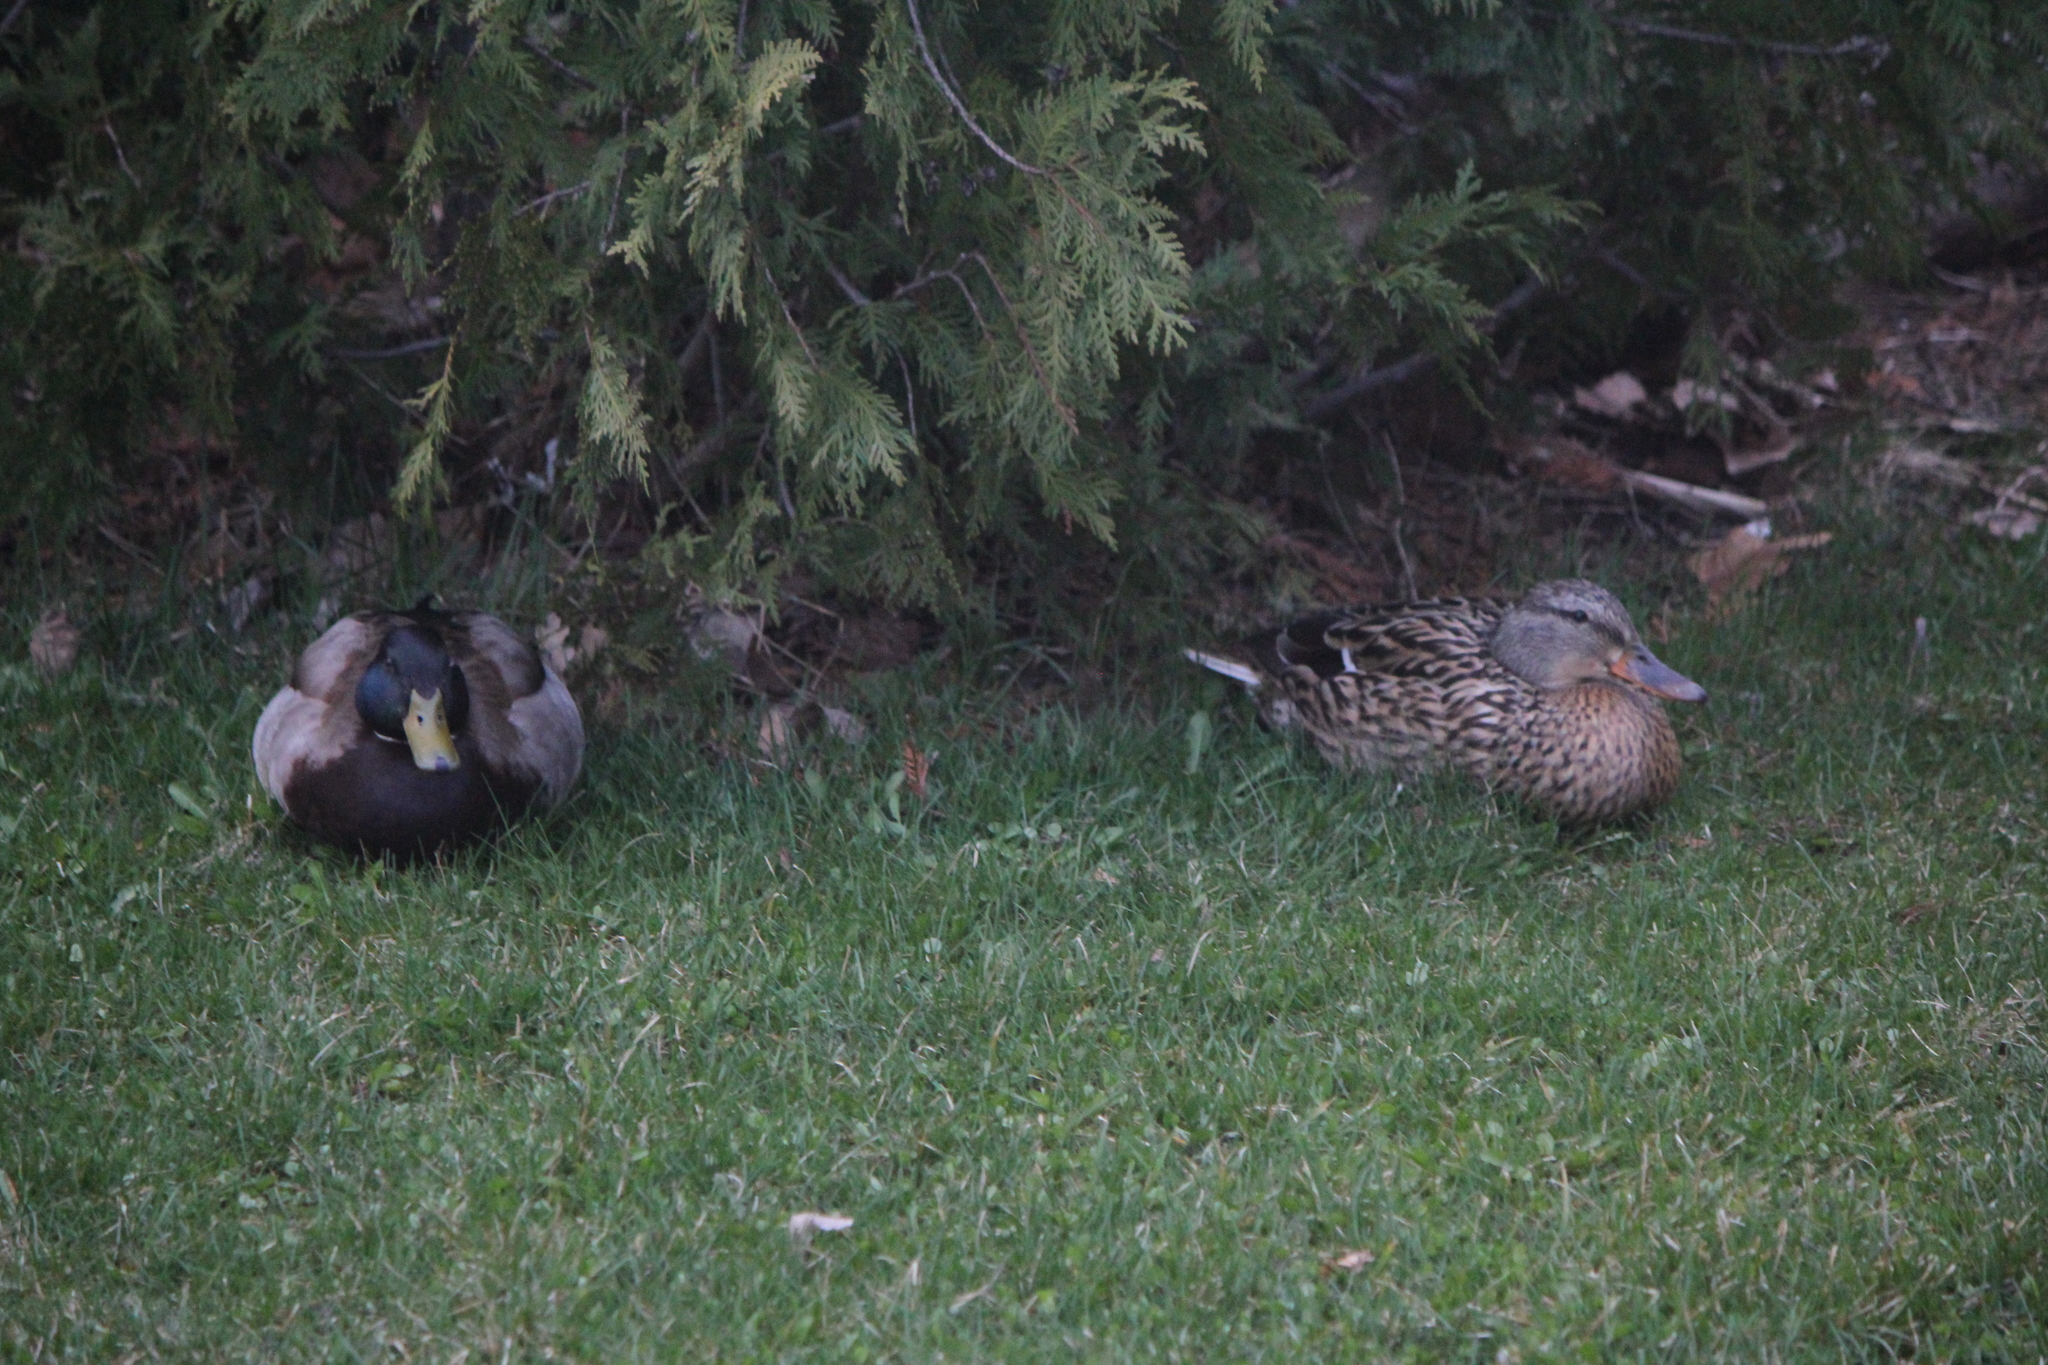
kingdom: Animalia
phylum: Chordata
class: Aves
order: Anseriformes
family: Anatidae
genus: Anas
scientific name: Anas platyrhynchos
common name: Mallard
